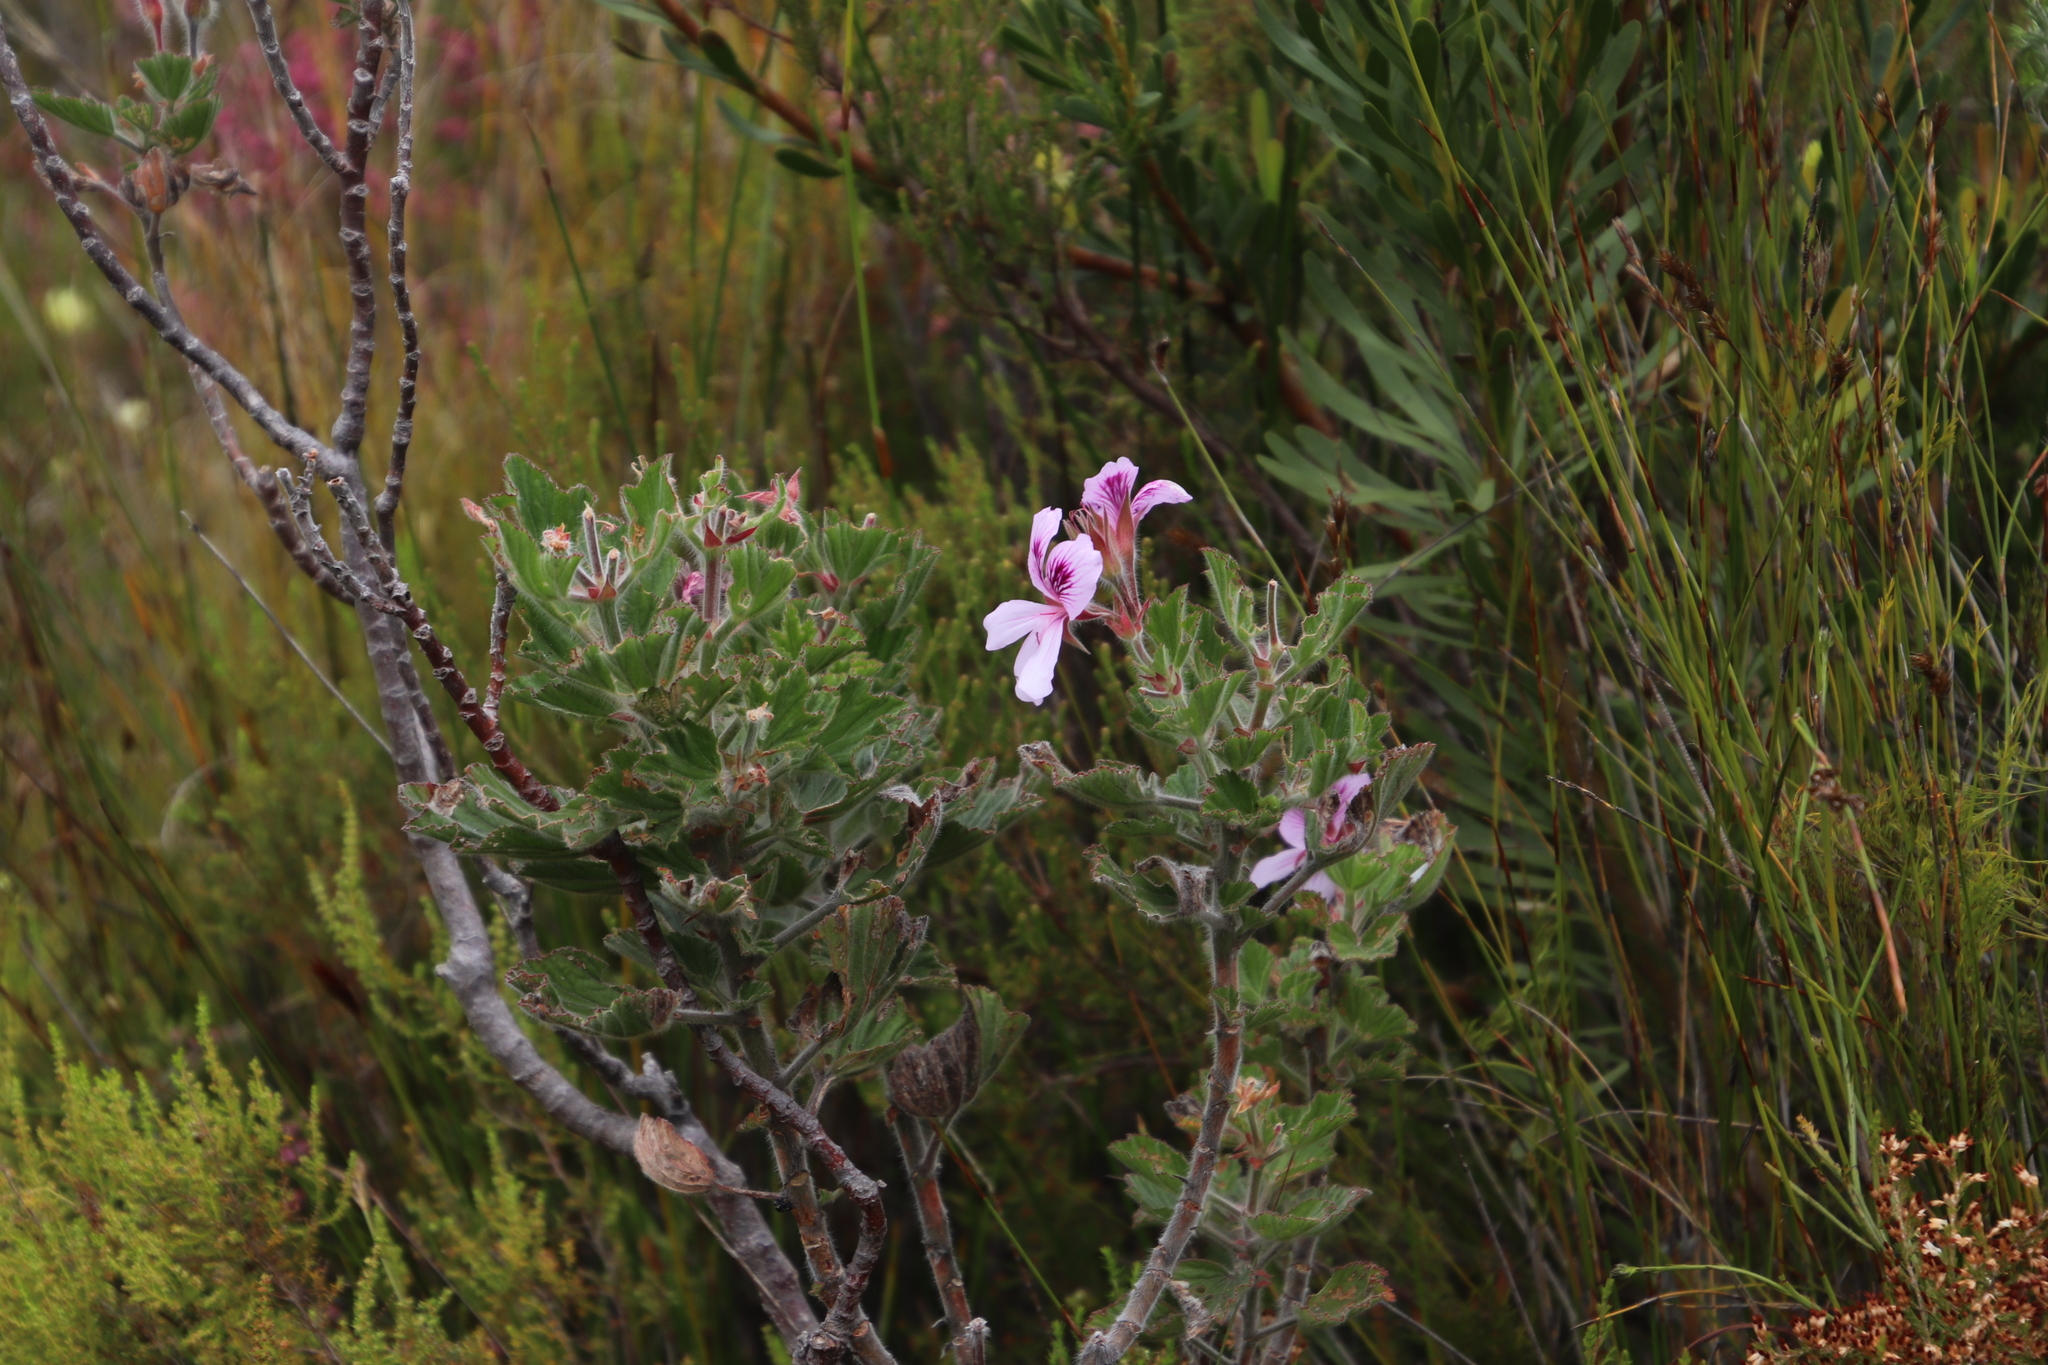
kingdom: Plantae
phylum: Tracheophyta
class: Magnoliopsida
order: Geraniales
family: Geraniaceae
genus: Pelargonium
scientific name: Pelargonium cucullatum
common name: Tree pelargonium
